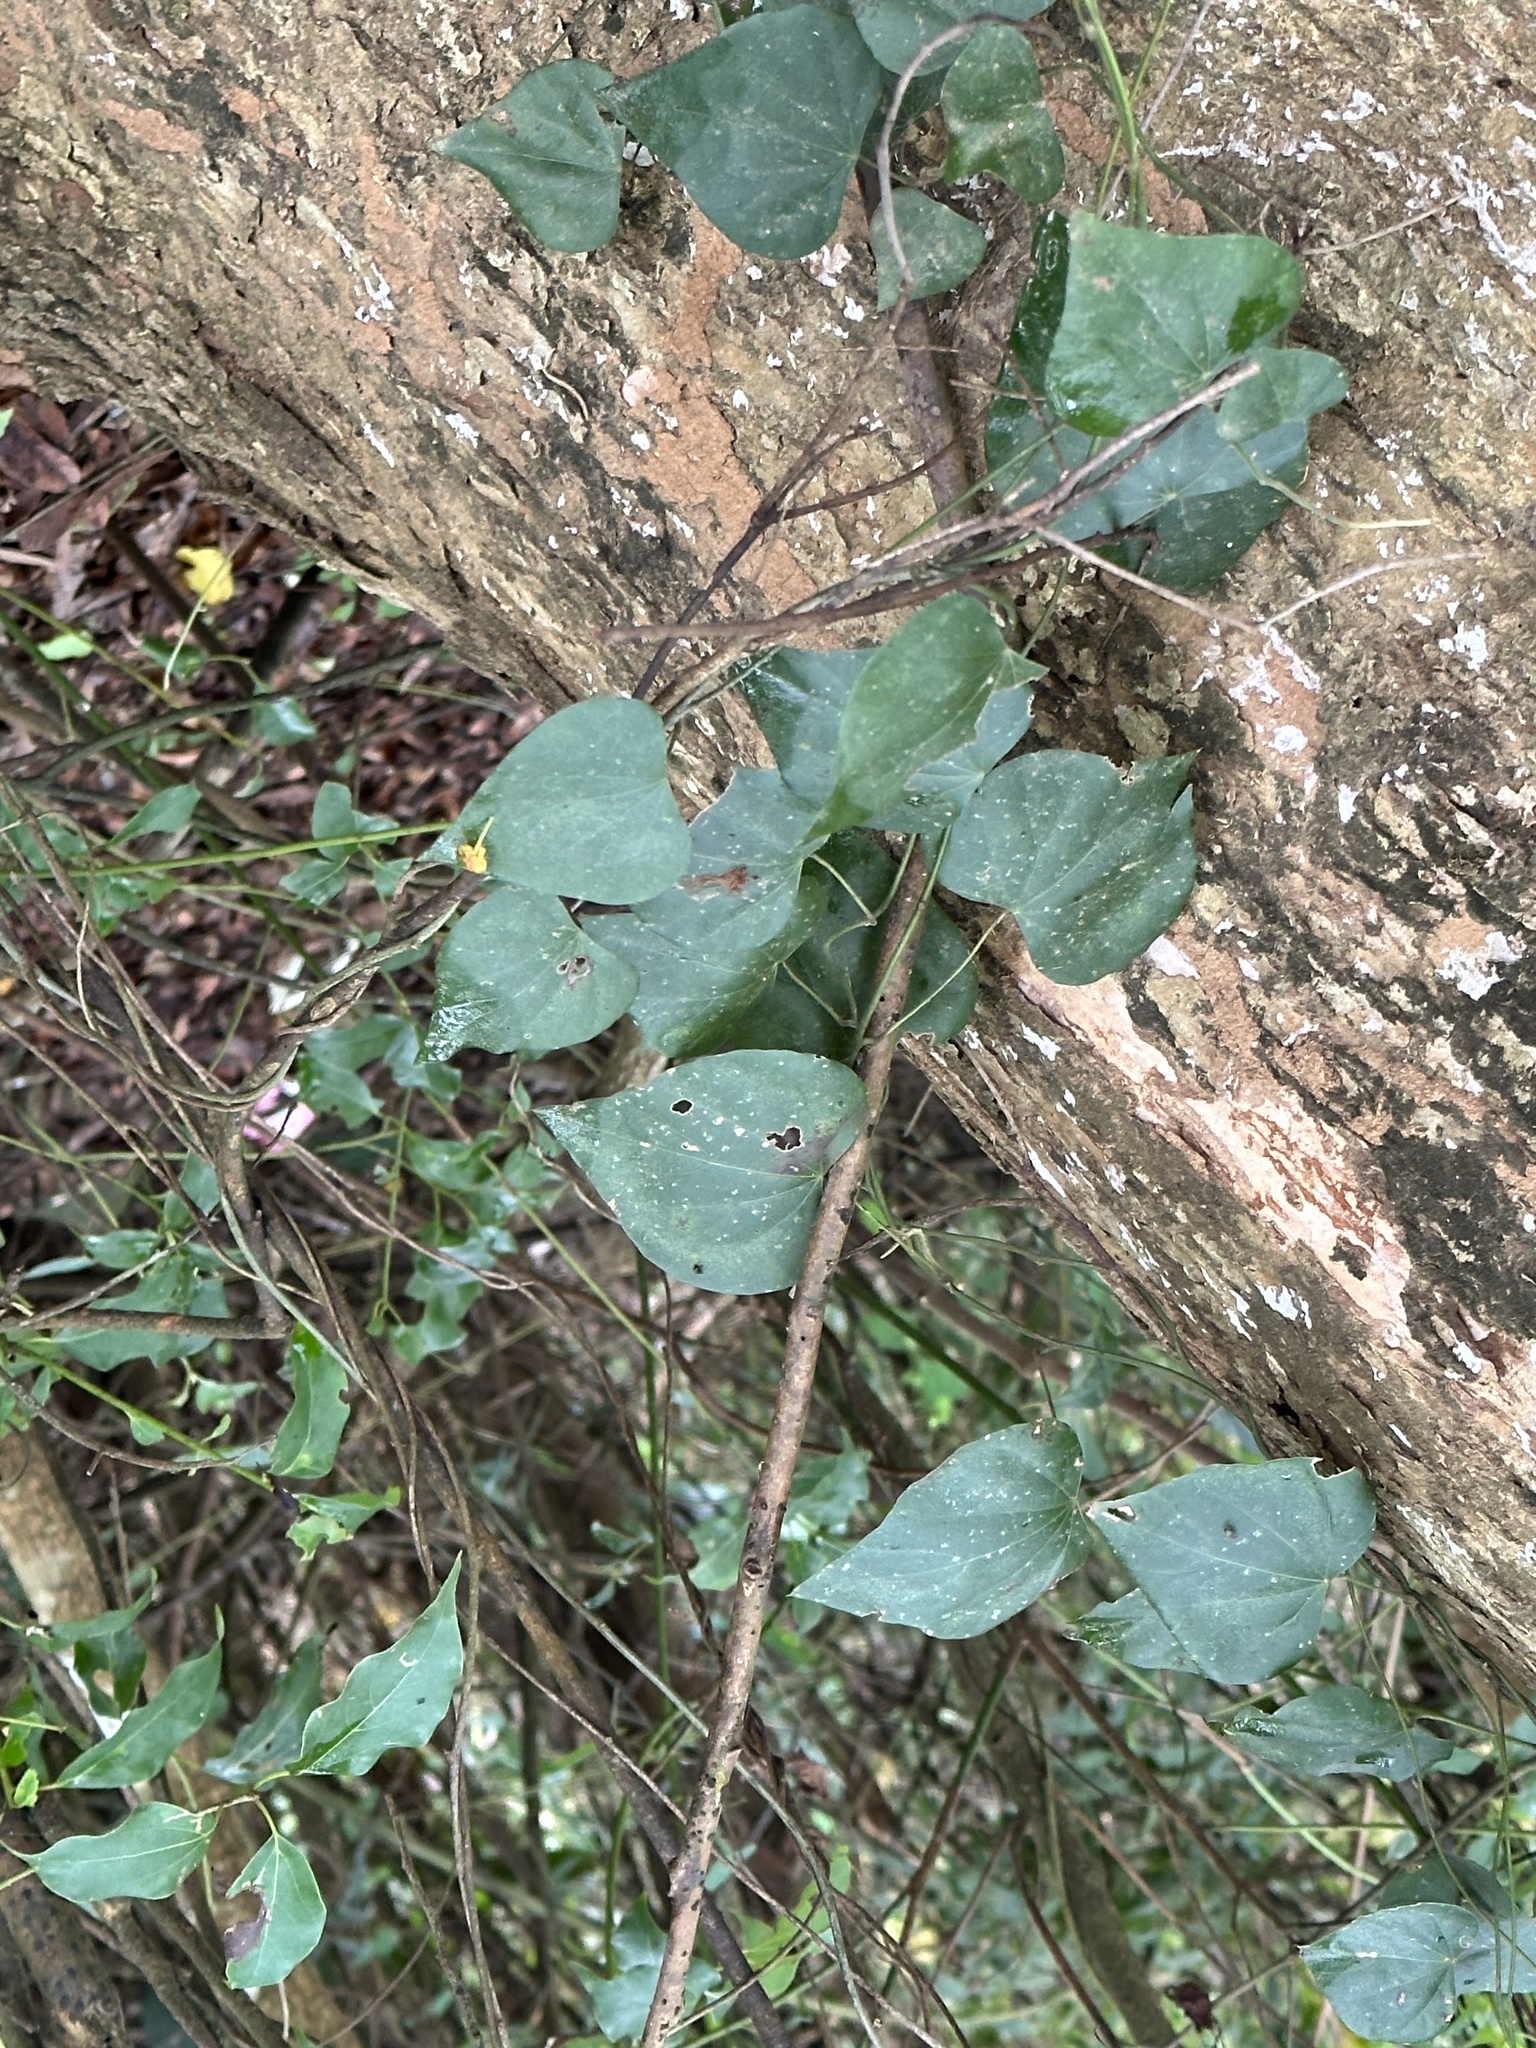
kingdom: Plantae
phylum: Tracheophyta
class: Magnoliopsida
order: Ranunculales
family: Menispermaceae
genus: Pericampylus
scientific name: Pericampylus glaucus
